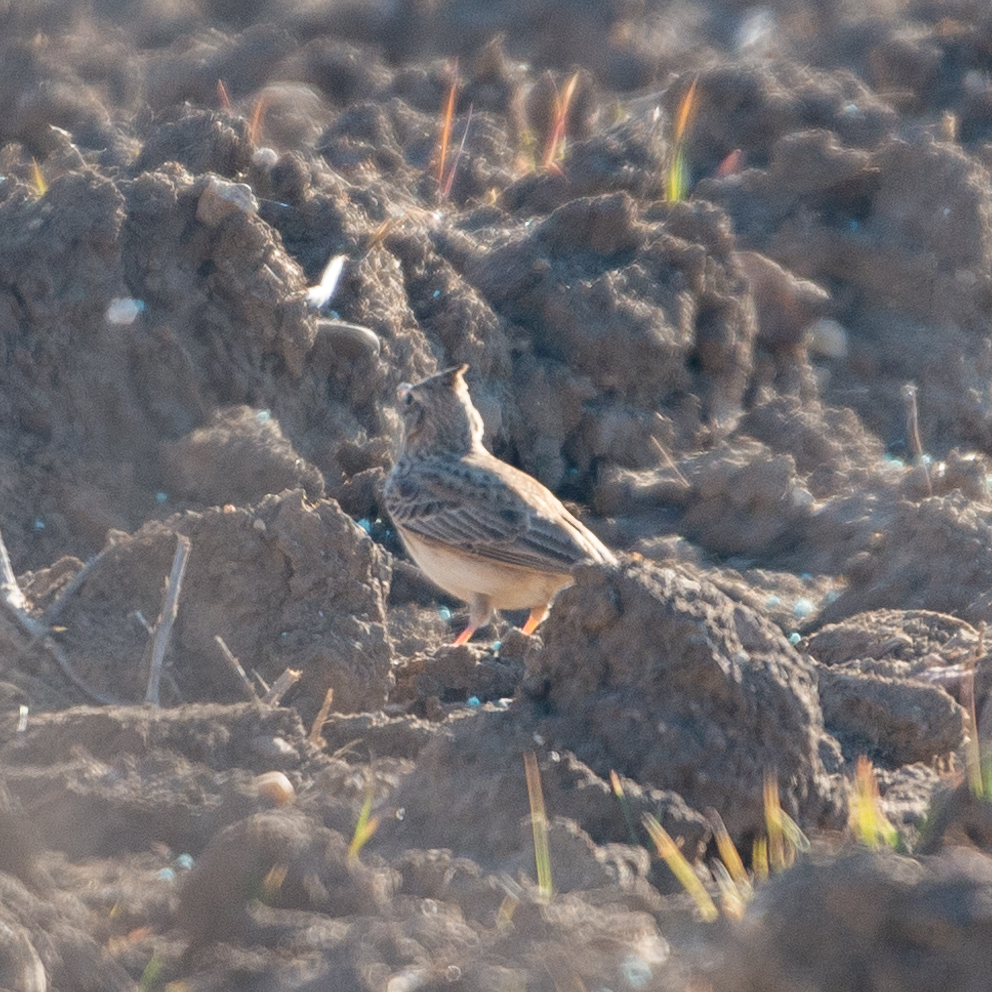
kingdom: Animalia
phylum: Chordata
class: Aves
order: Passeriformes
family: Alaudidae
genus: Galerida
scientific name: Galerida cristata
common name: Crested lark
